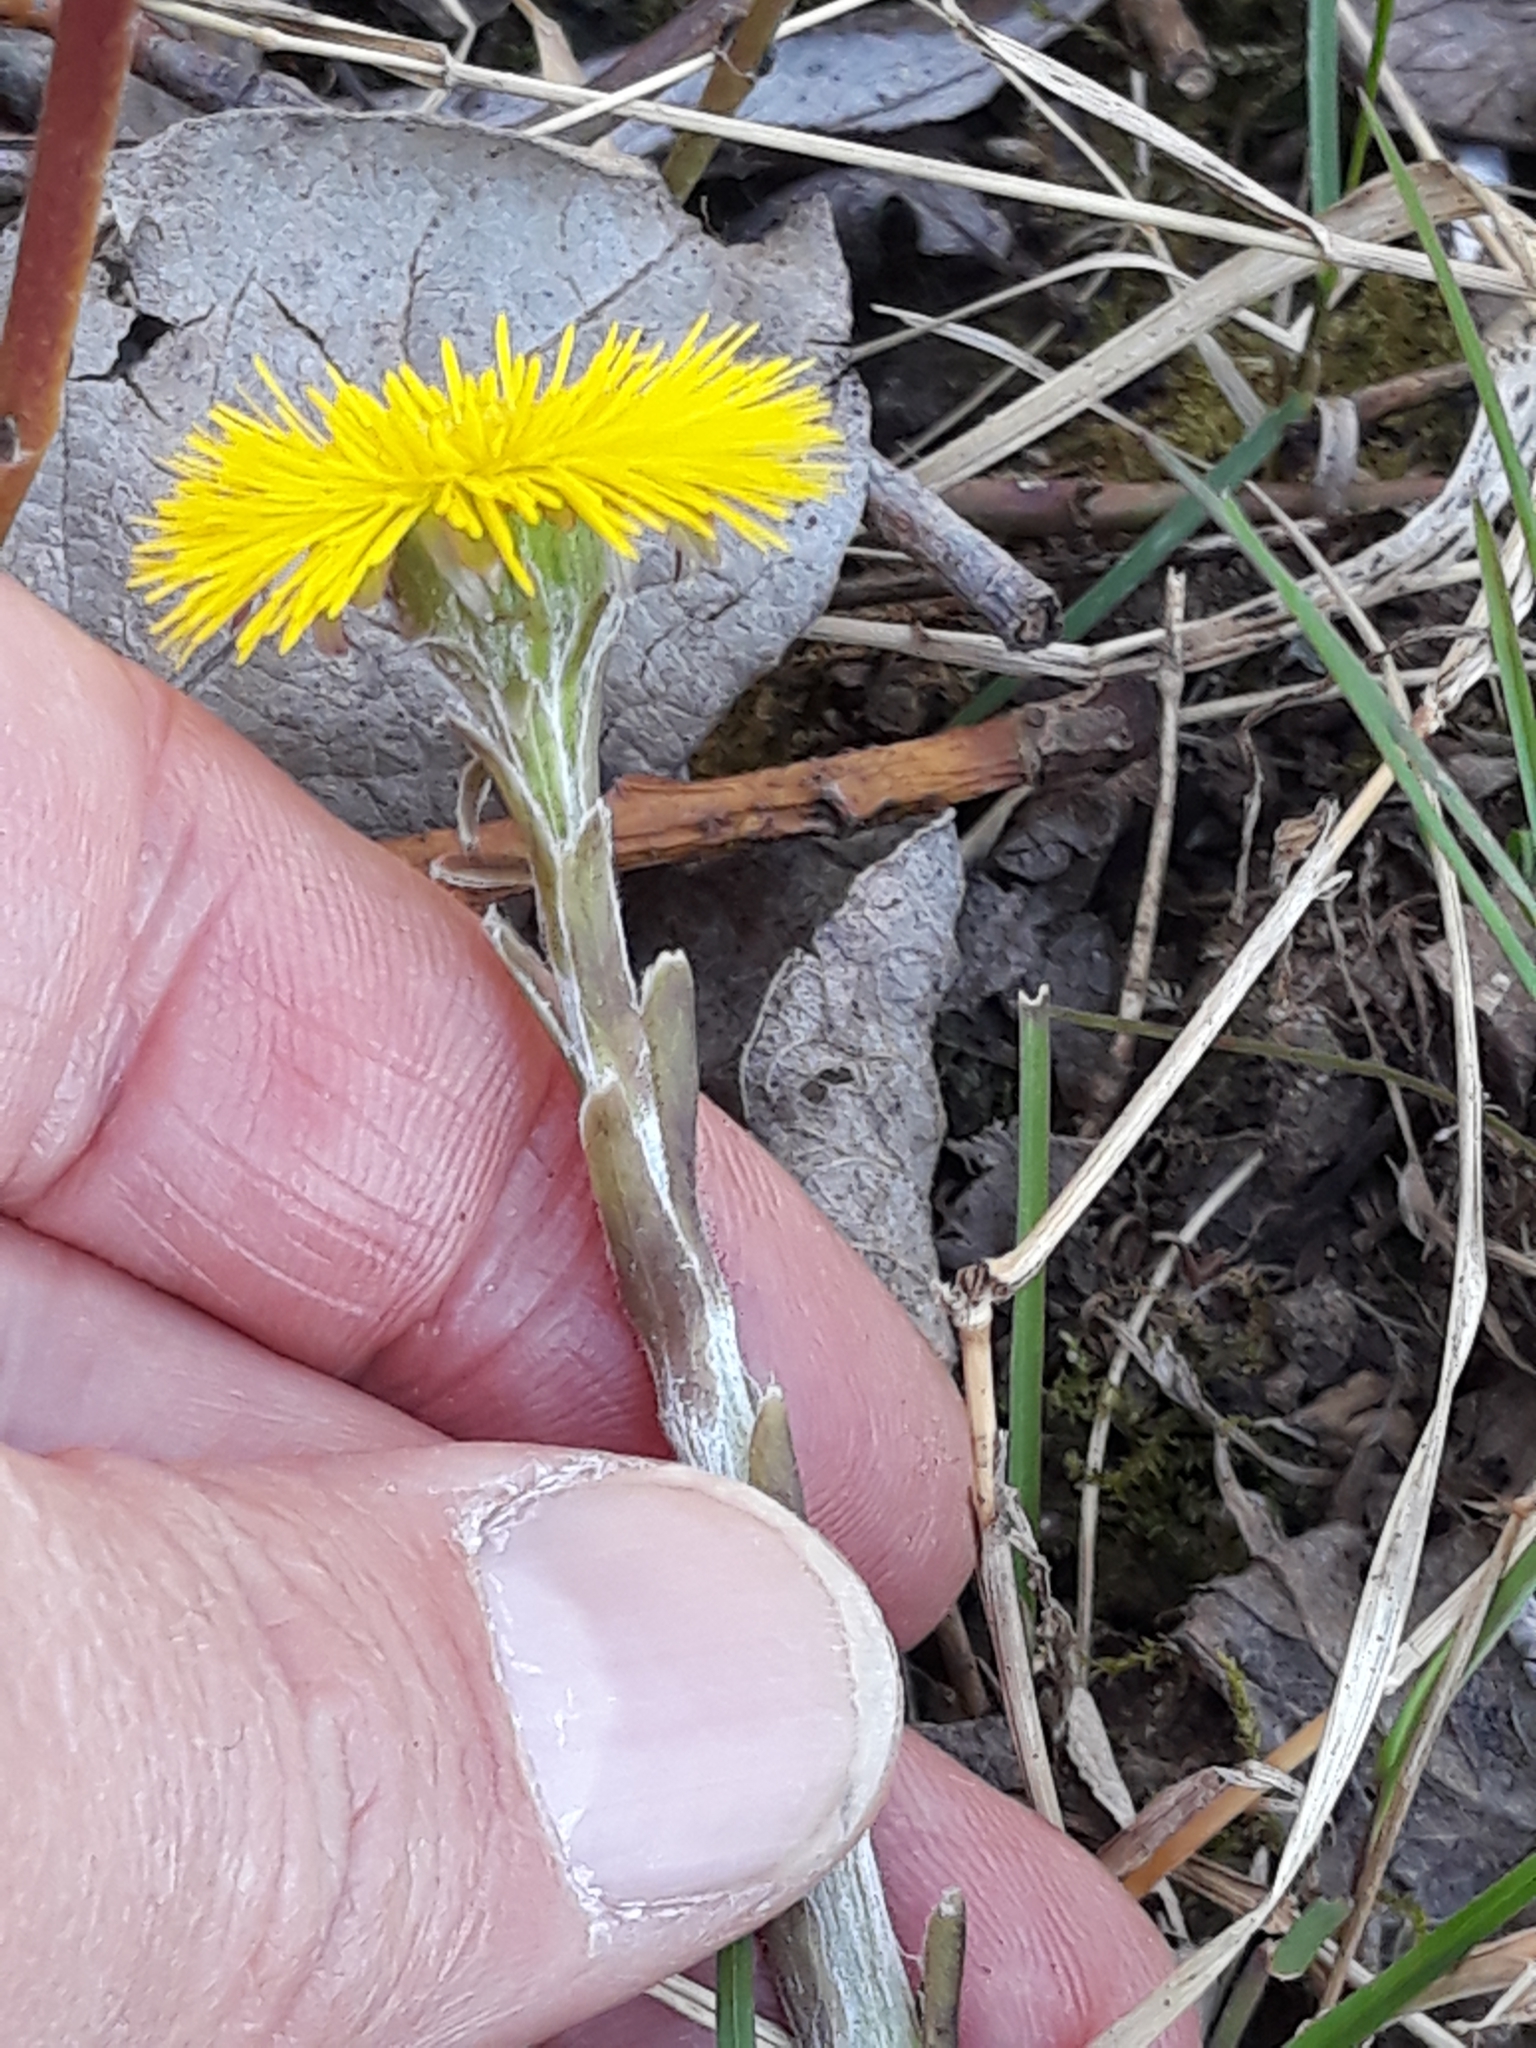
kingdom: Plantae
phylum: Tracheophyta
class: Magnoliopsida
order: Asterales
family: Asteraceae
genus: Tussilago
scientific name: Tussilago farfara
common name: Coltsfoot
